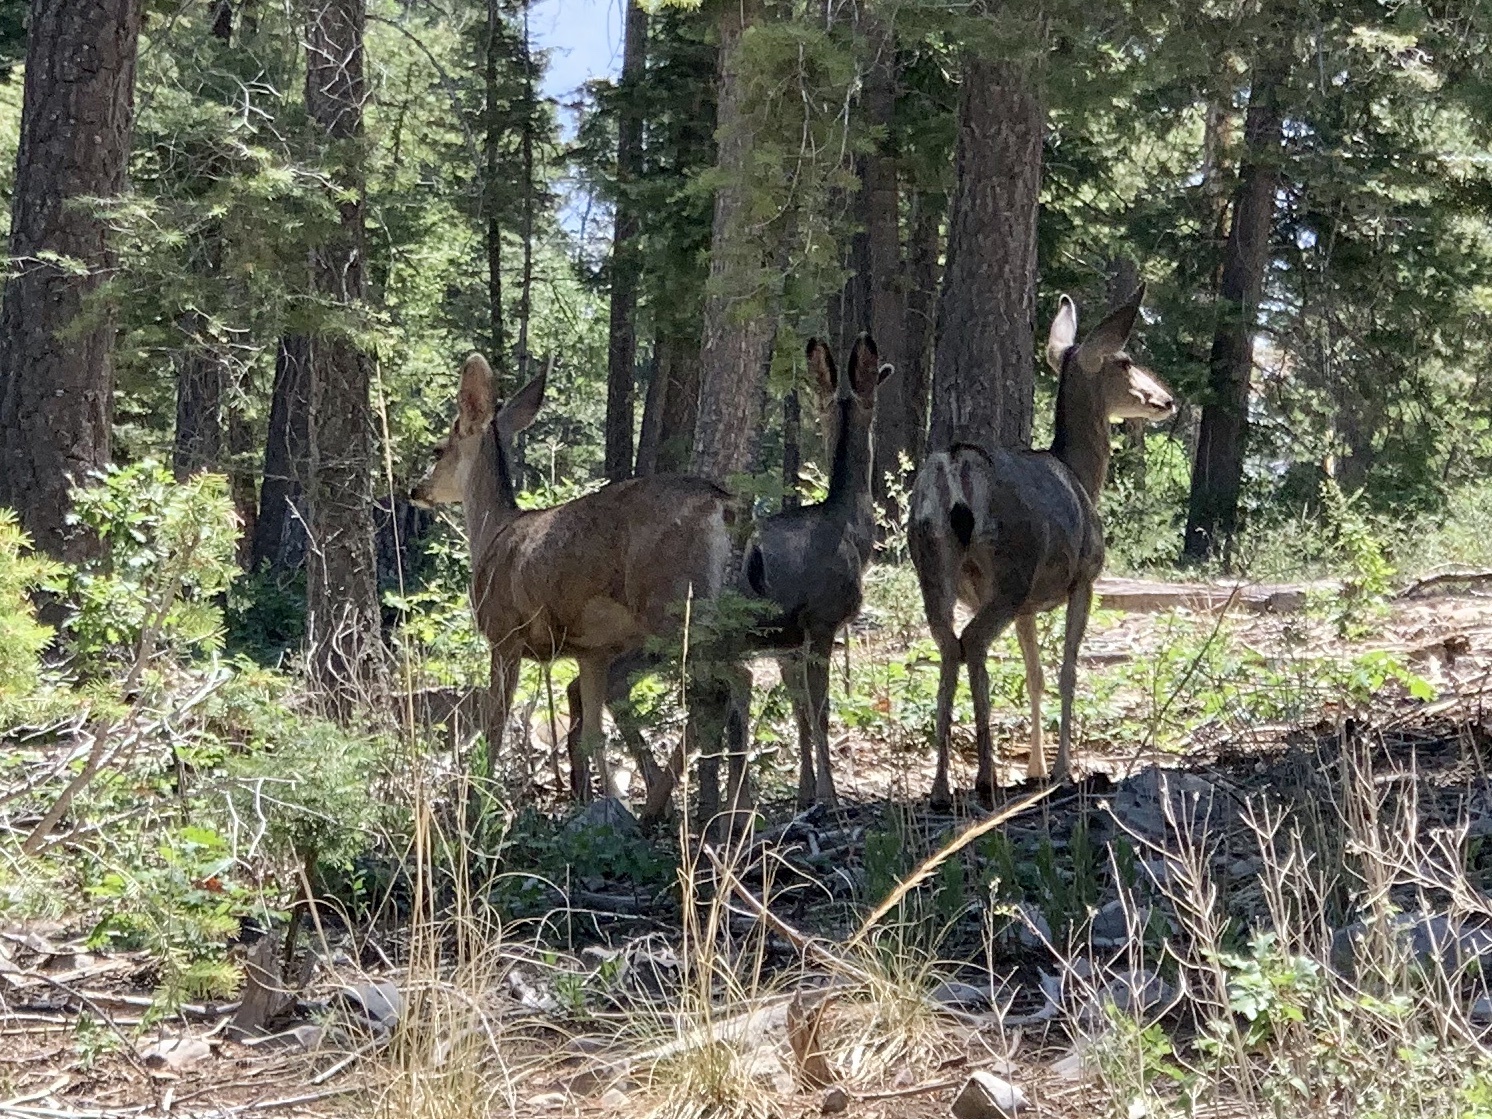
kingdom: Animalia
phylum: Chordata
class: Mammalia
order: Artiodactyla
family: Cervidae
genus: Odocoileus
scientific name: Odocoileus hemionus
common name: Mule deer
